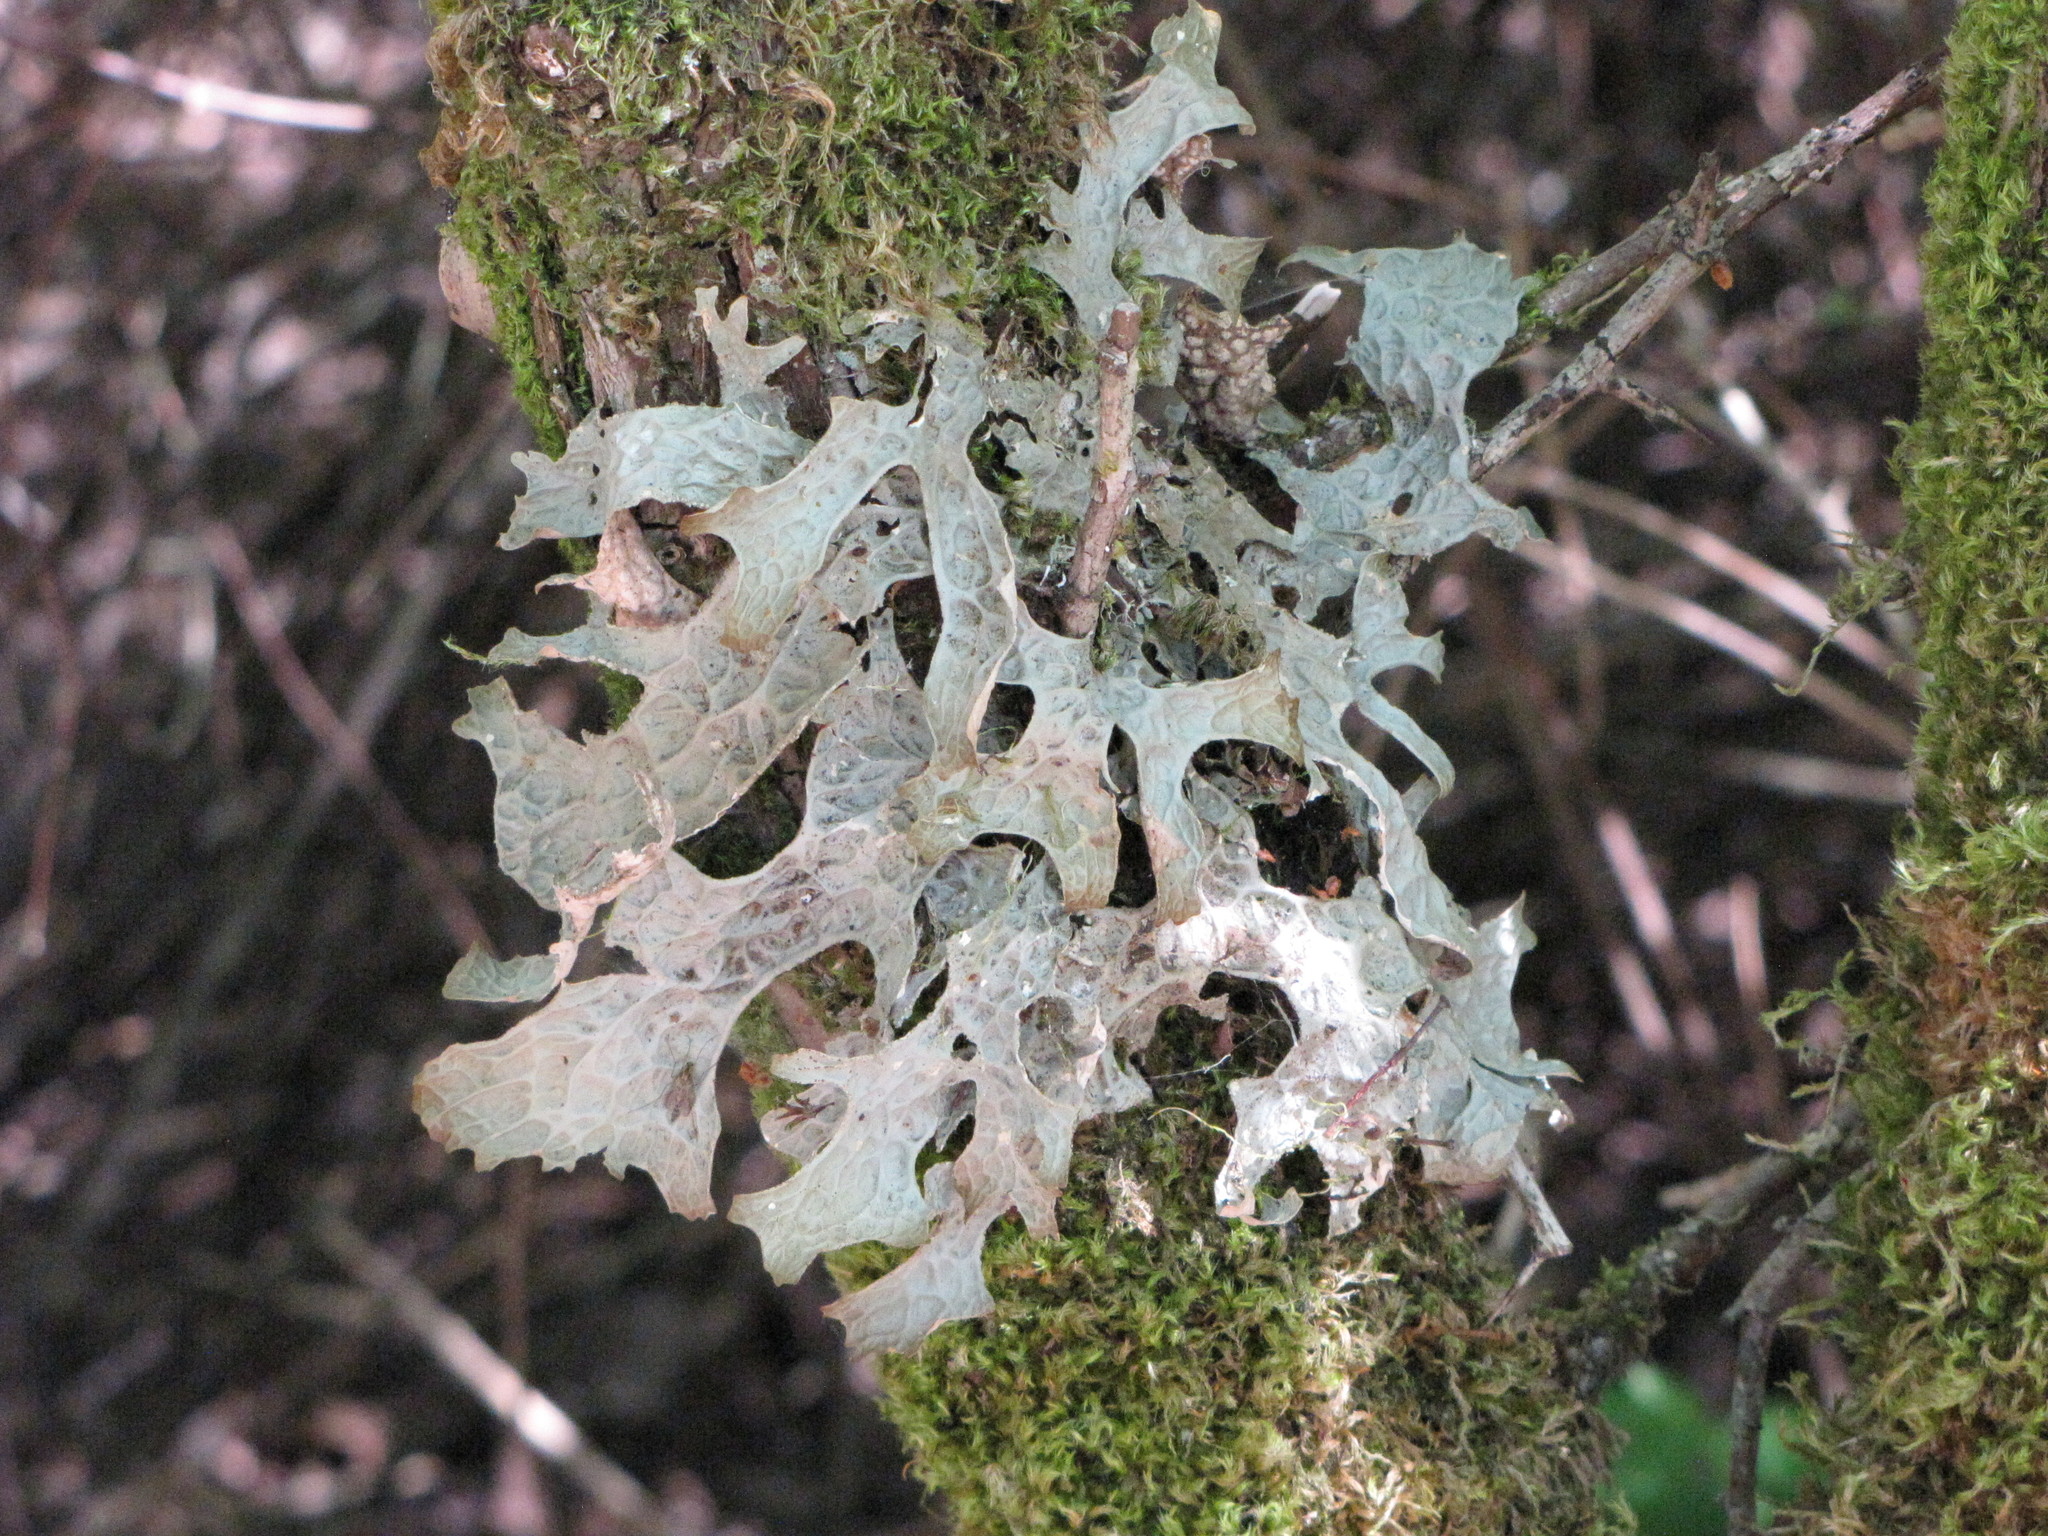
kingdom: Fungi
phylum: Ascomycota
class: Lecanoromycetes
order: Peltigerales
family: Lobariaceae
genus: Lobaria
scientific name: Lobaria pulmonaria
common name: Lungwort
